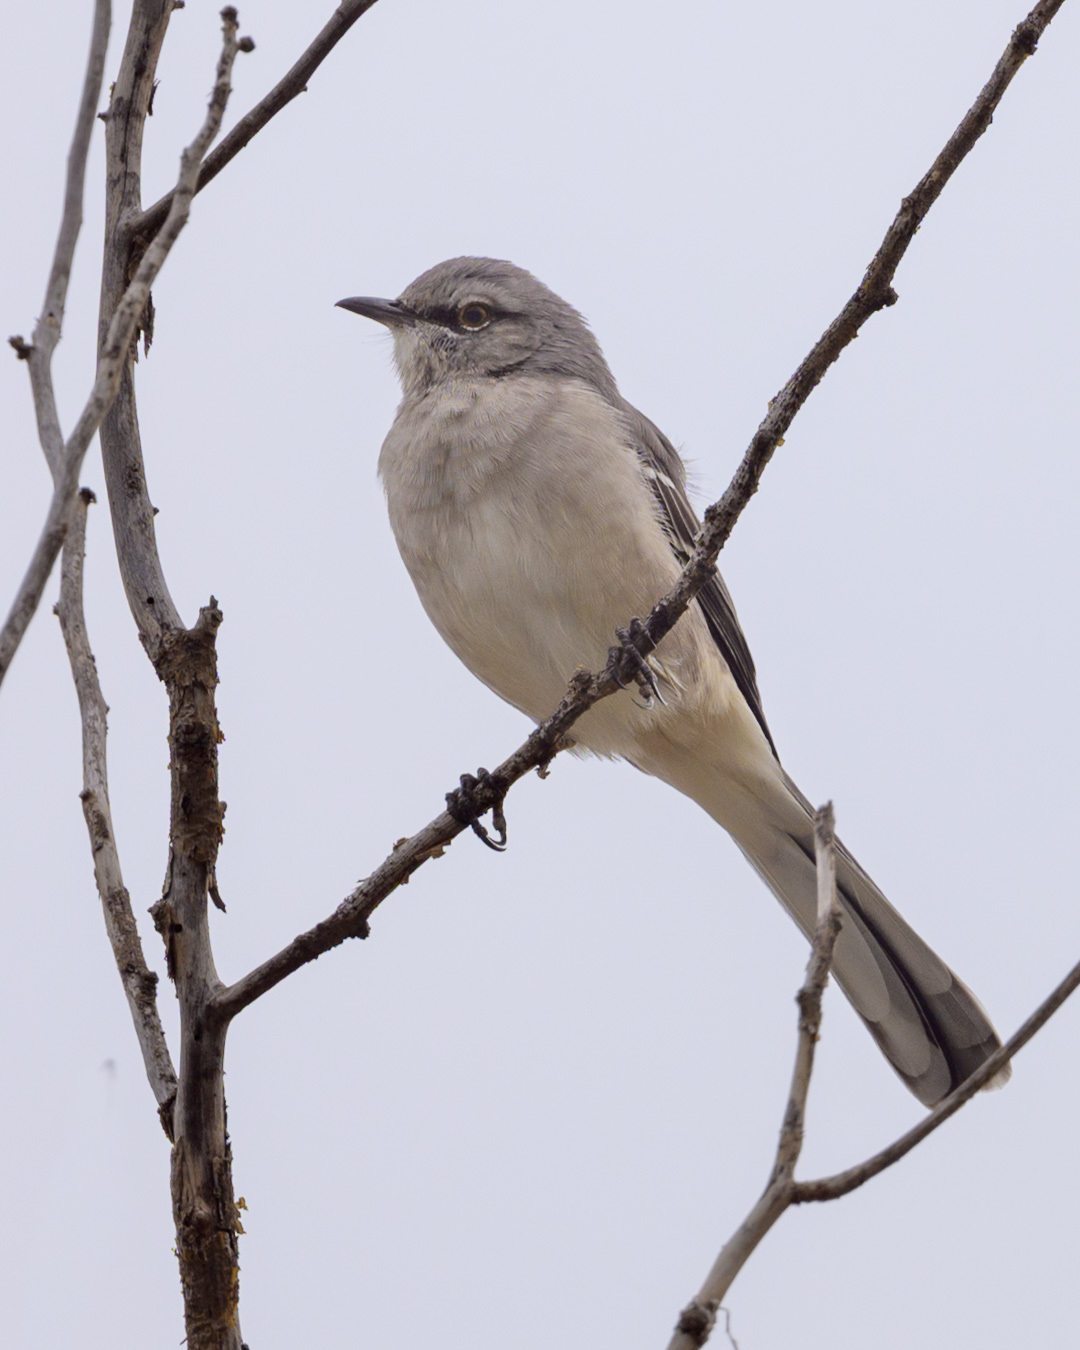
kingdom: Animalia
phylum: Chordata
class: Aves
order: Passeriformes
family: Mimidae
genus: Mimus
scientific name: Mimus polyglottos
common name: Northern mockingbird
